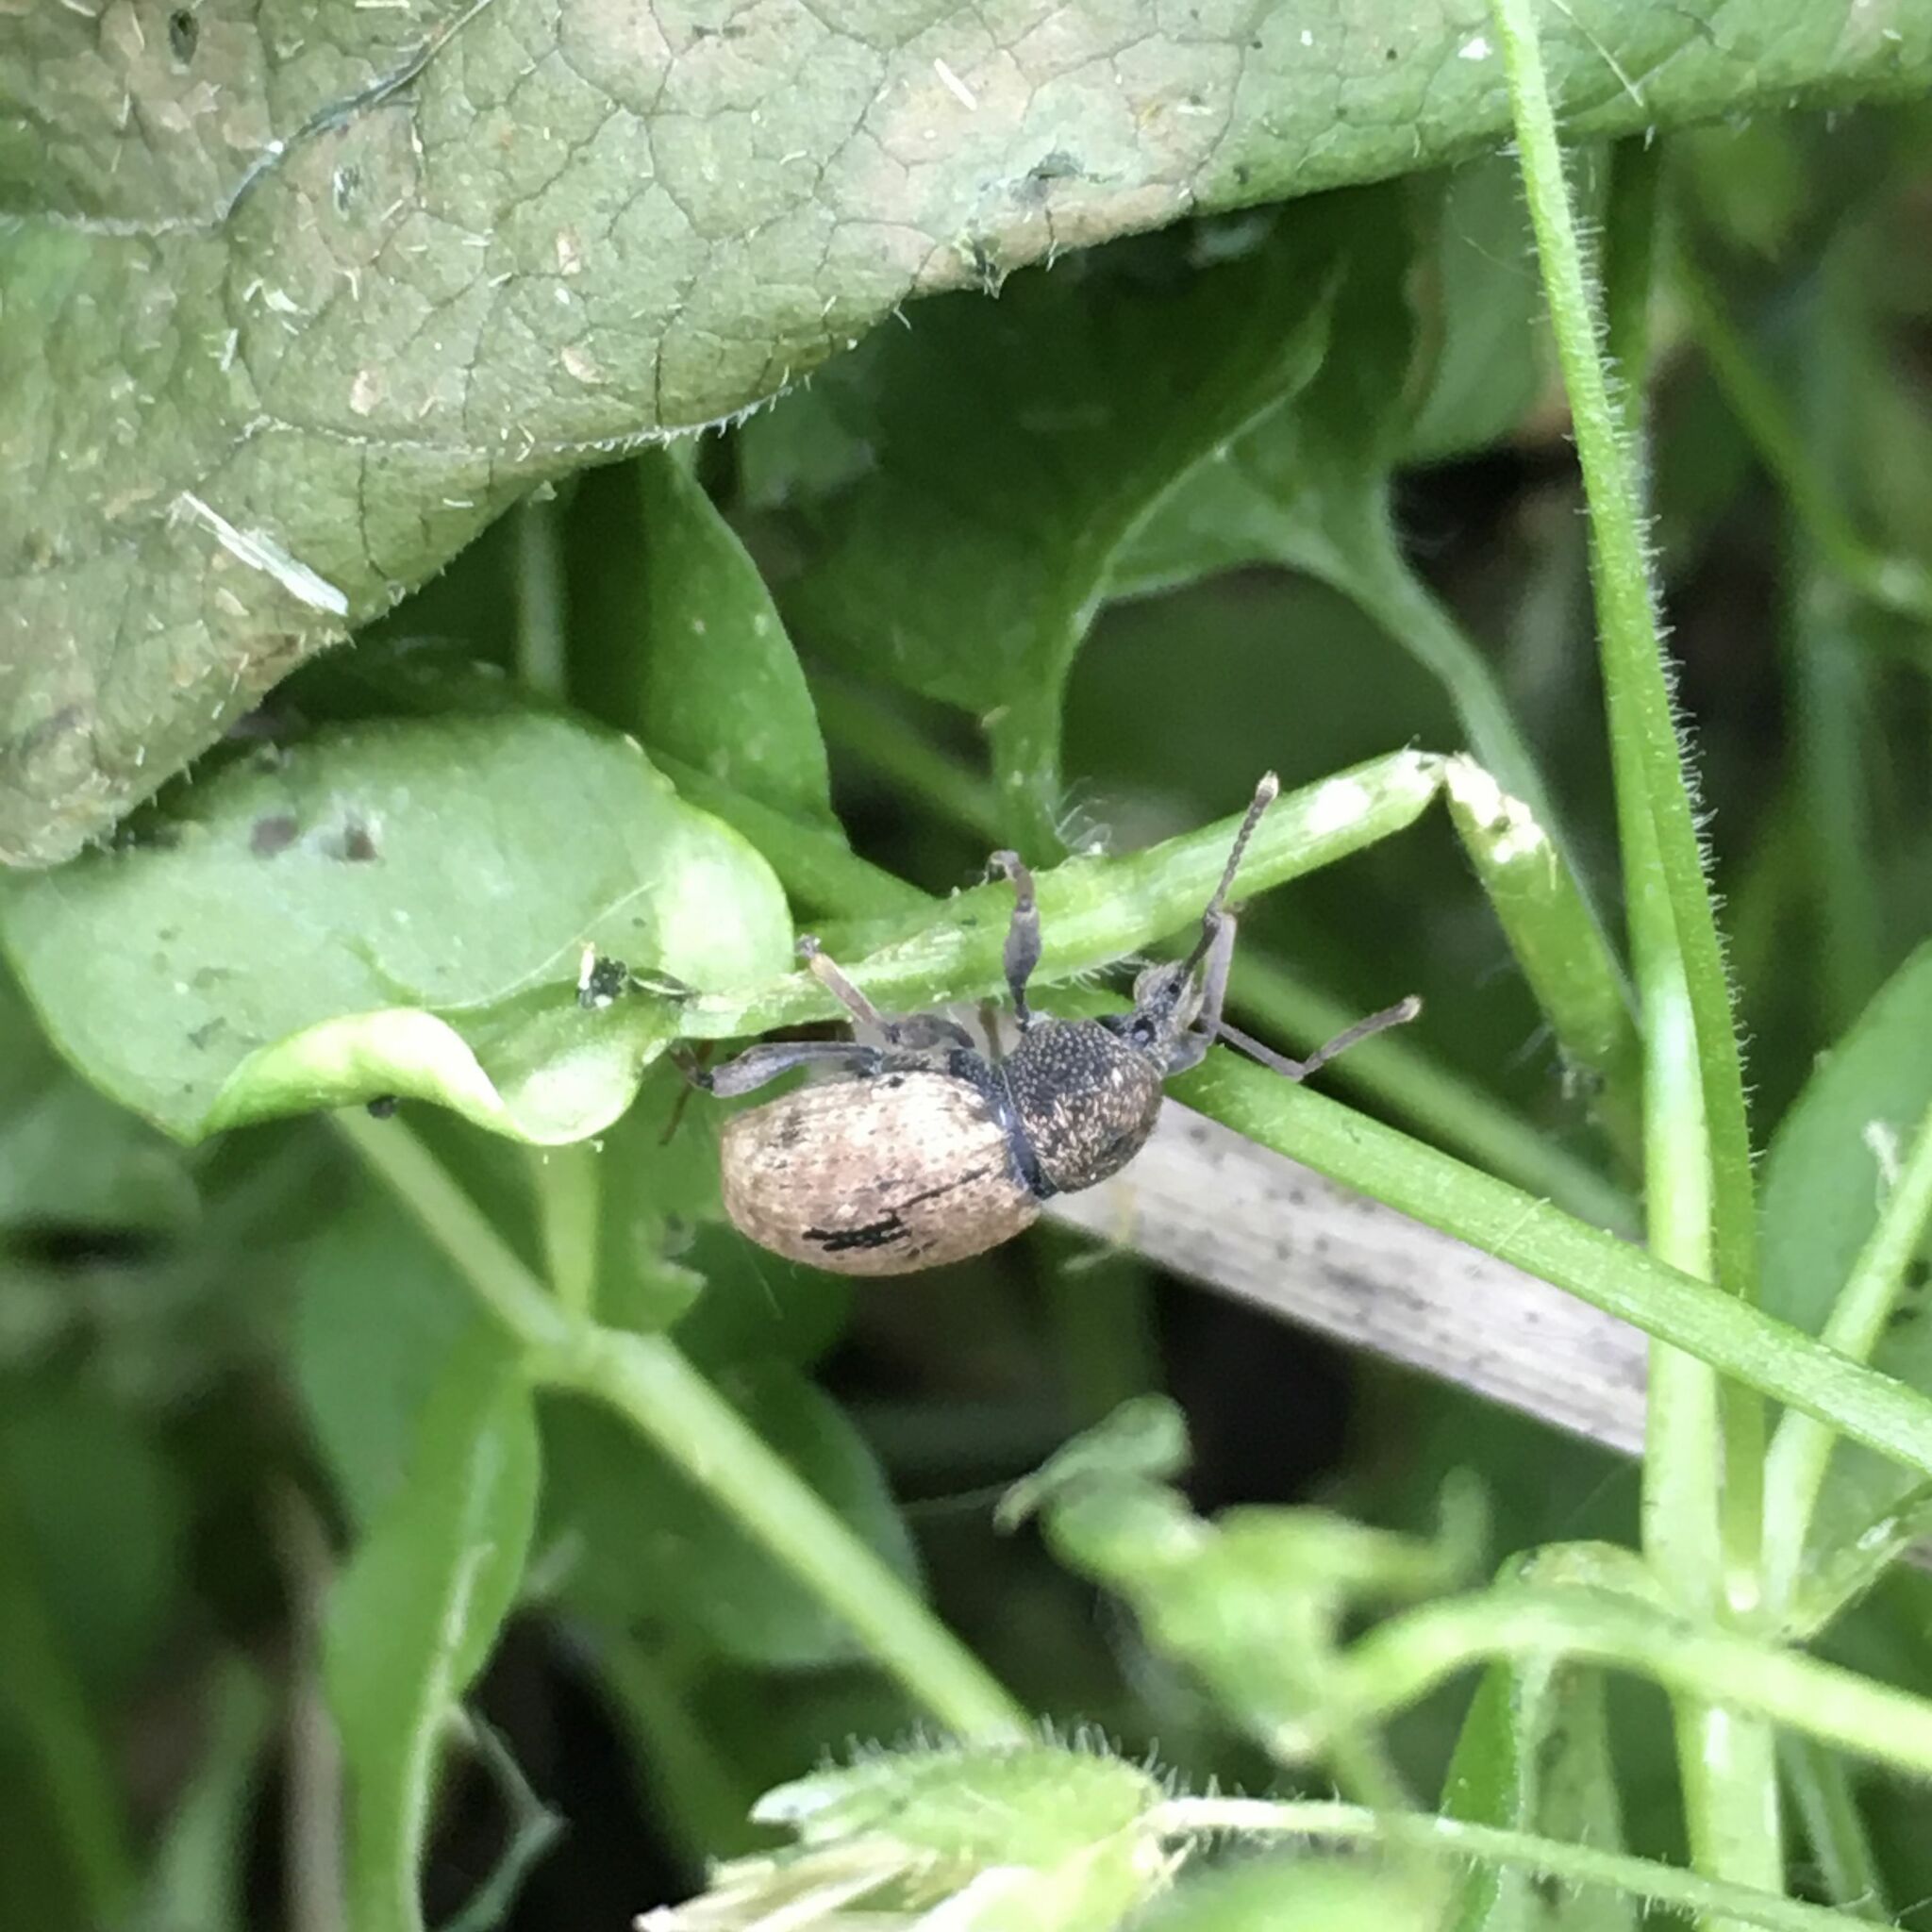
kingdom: Animalia
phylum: Arthropoda
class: Insecta
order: Coleoptera
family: Curculionidae
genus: Otiorhynchus
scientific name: Otiorhynchus raucus
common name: Weevil
